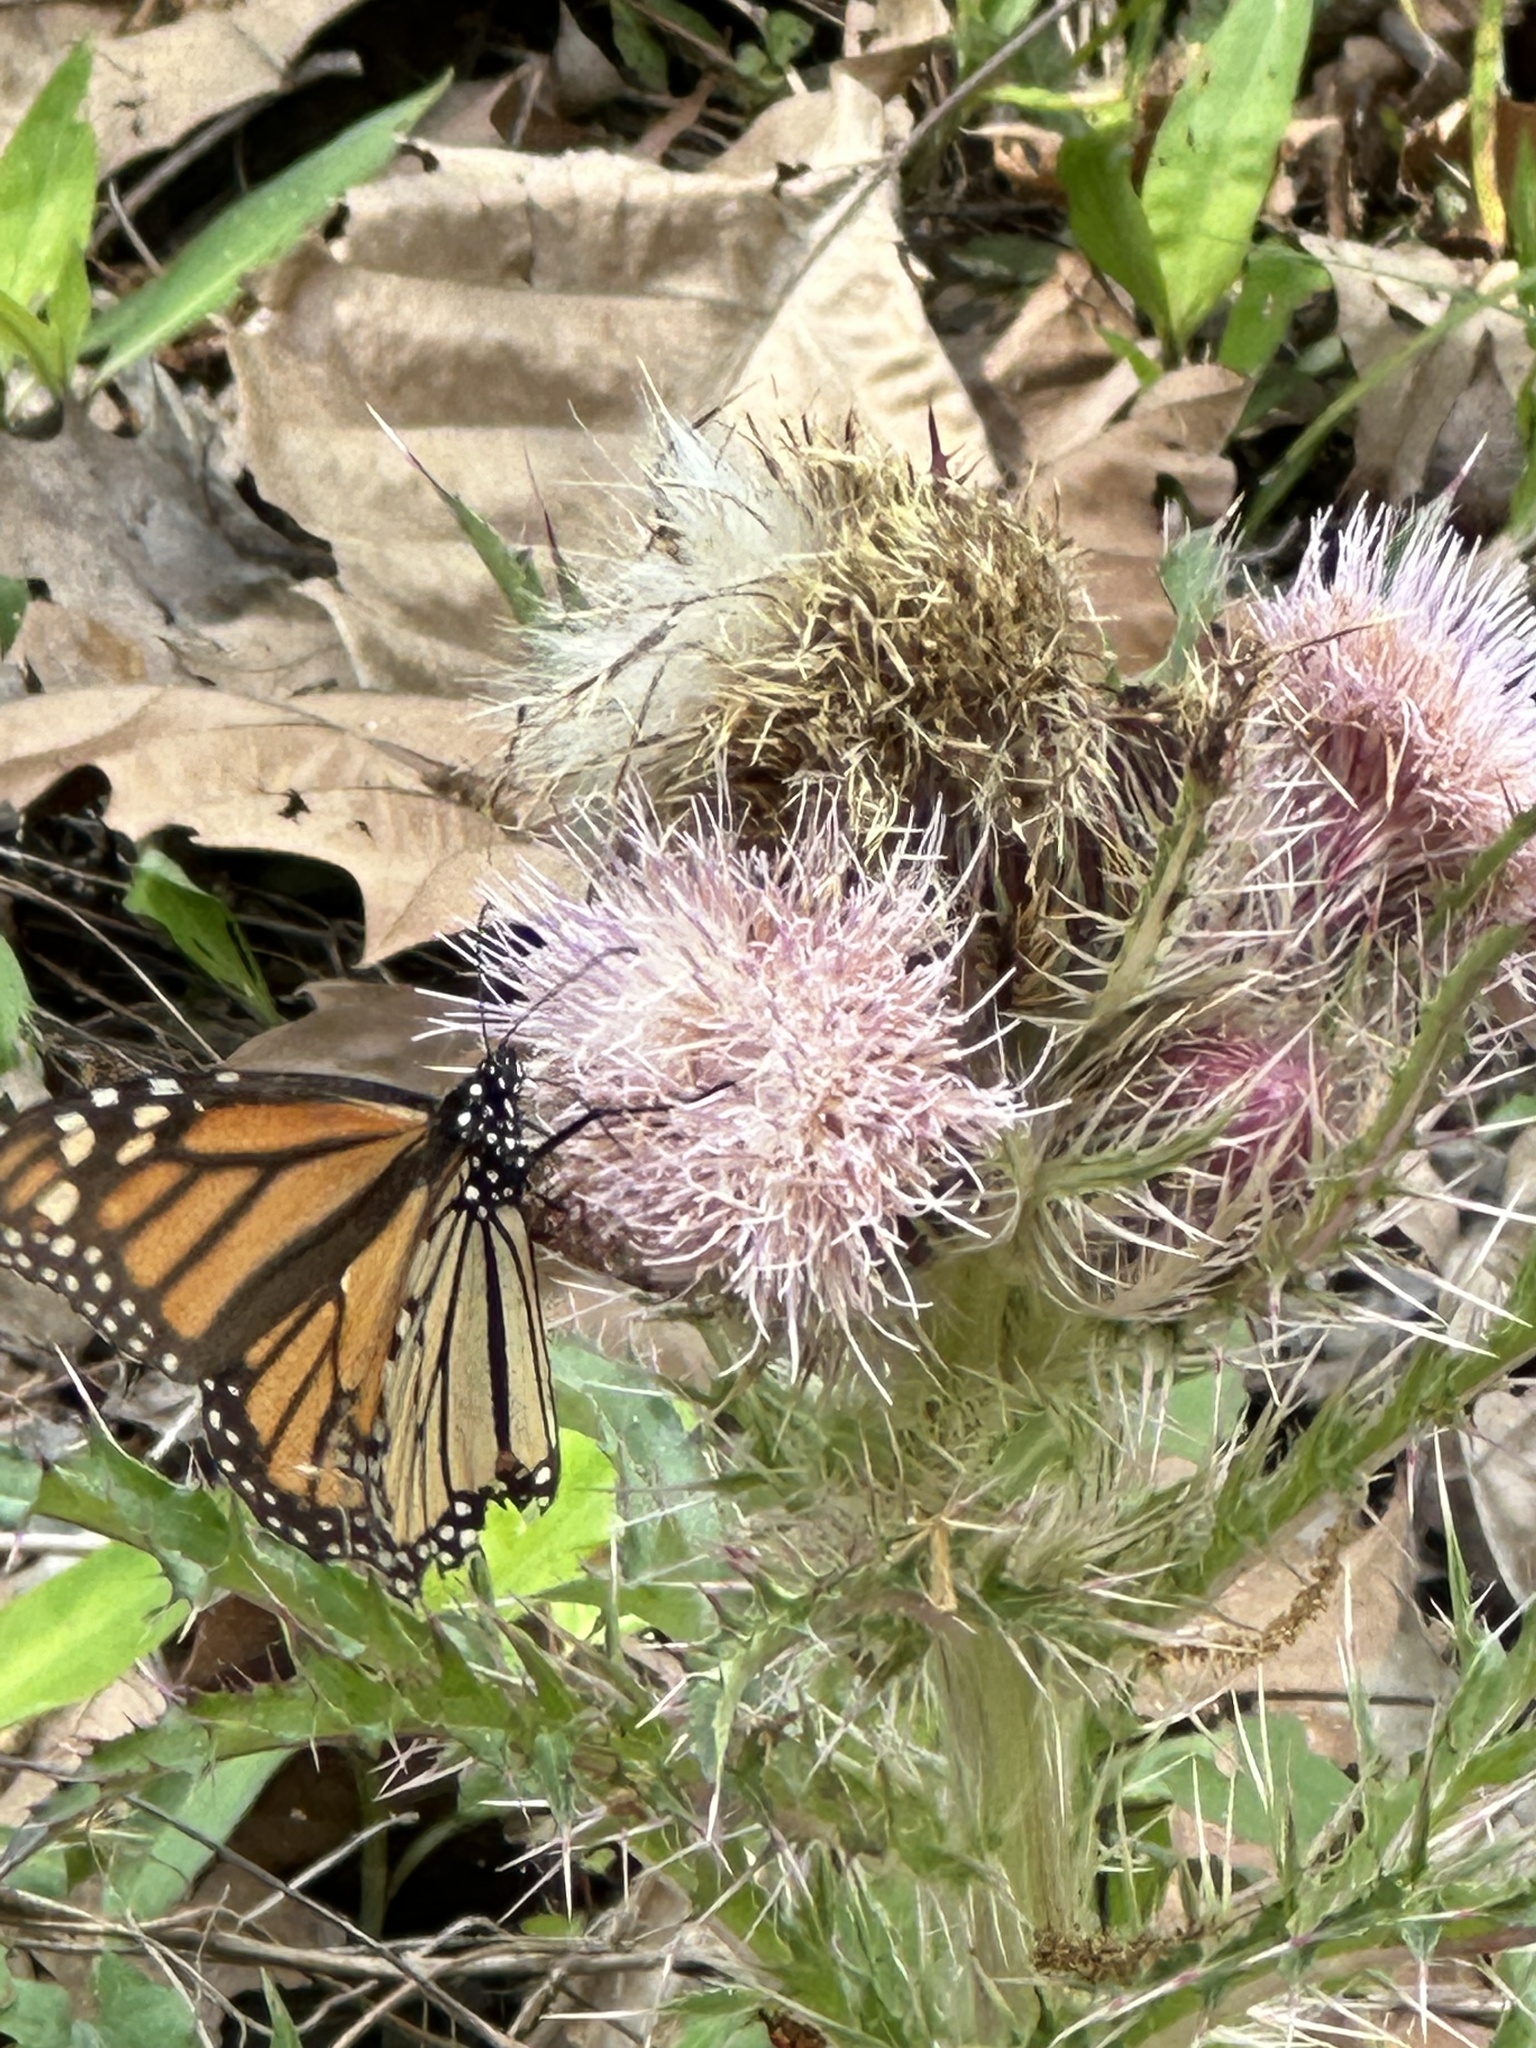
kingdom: Animalia
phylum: Arthropoda
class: Insecta
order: Lepidoptera
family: Nymphalidae
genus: Danaus
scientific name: Danaus plexippus
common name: Monarch
